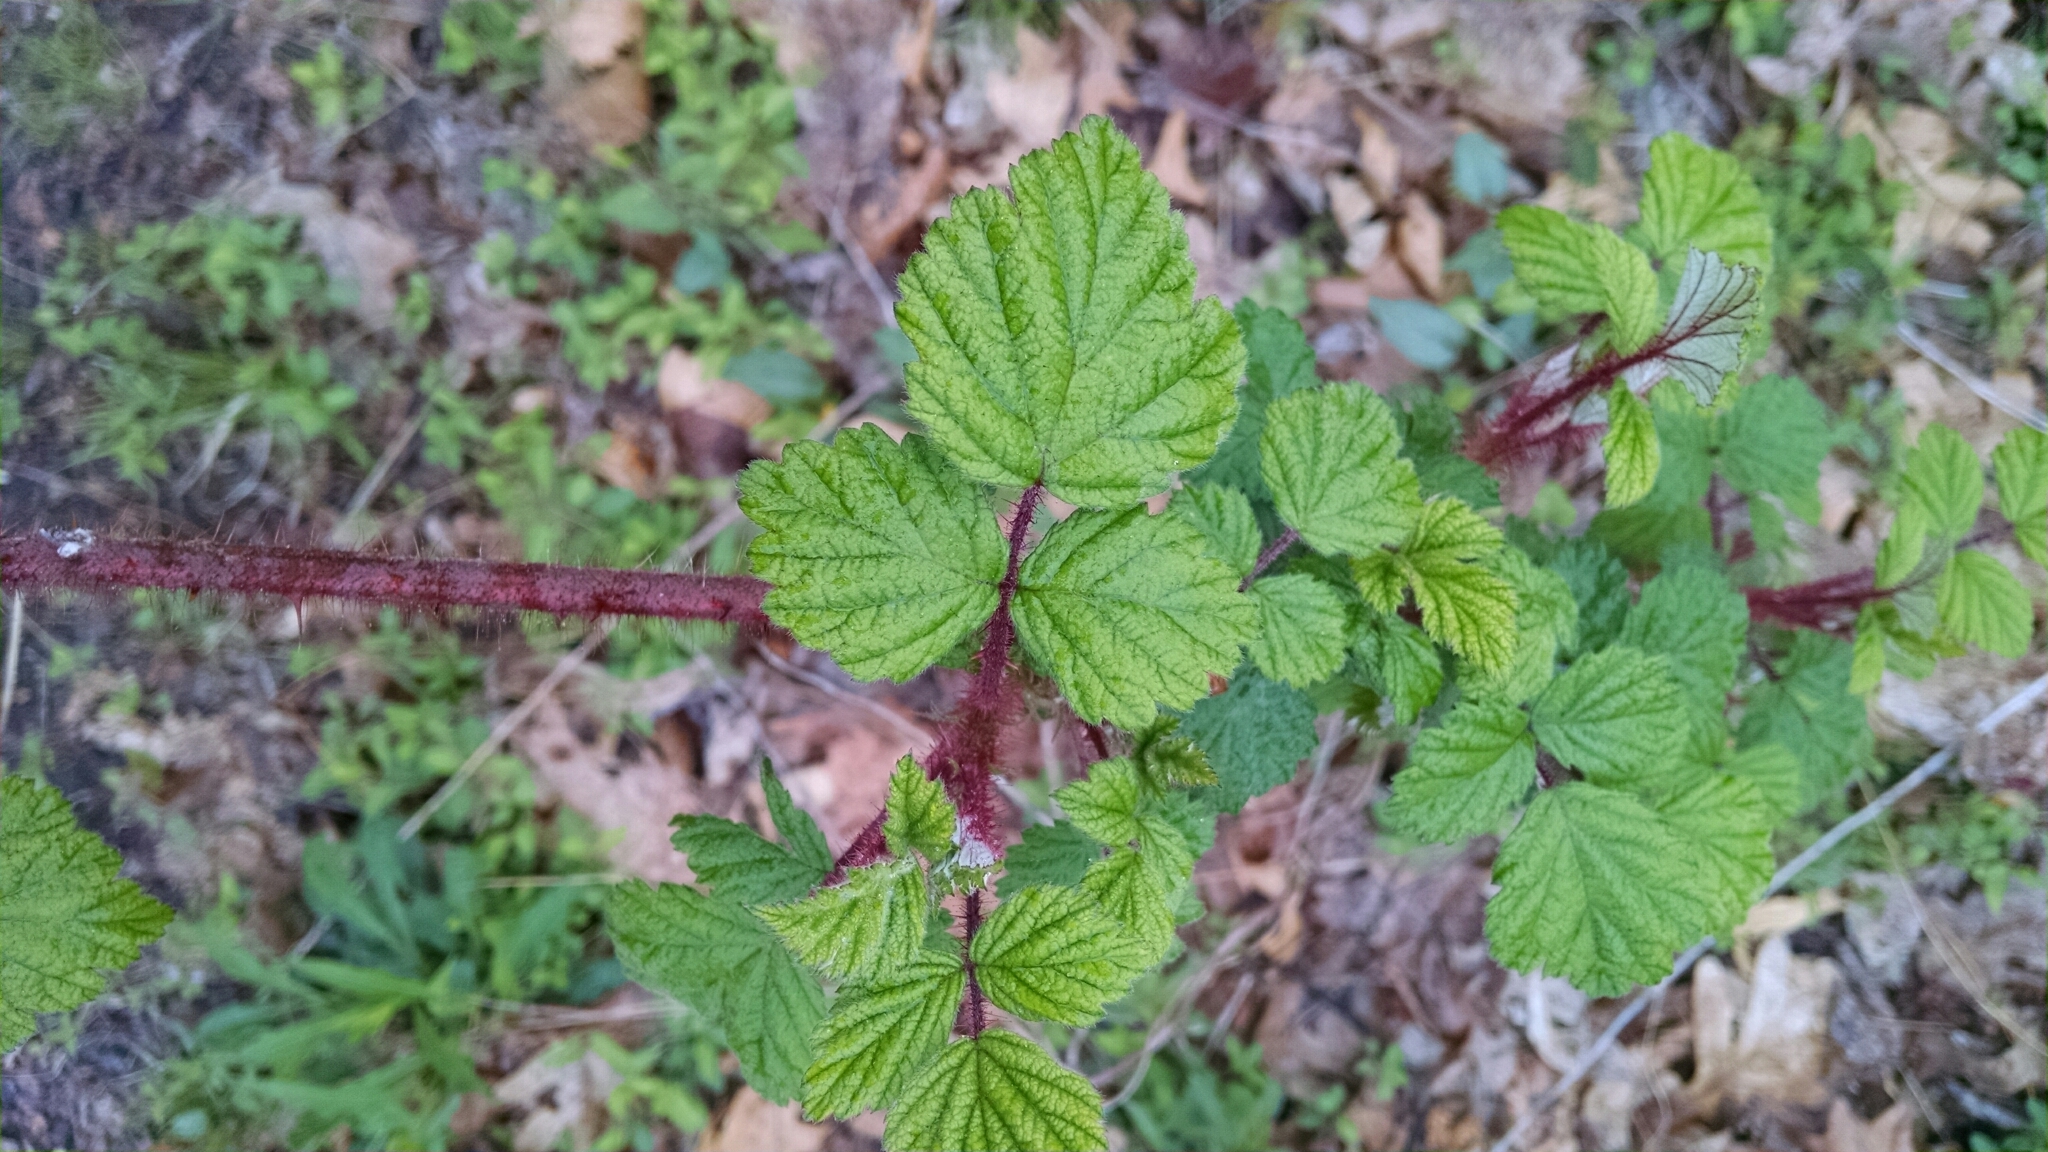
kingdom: Plantae
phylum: Tracheophyta
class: Magnoliopsida
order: Rosales
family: Rosaceae
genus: Rubus
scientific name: Rubus phoenicolasius
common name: Japanese wineberry
